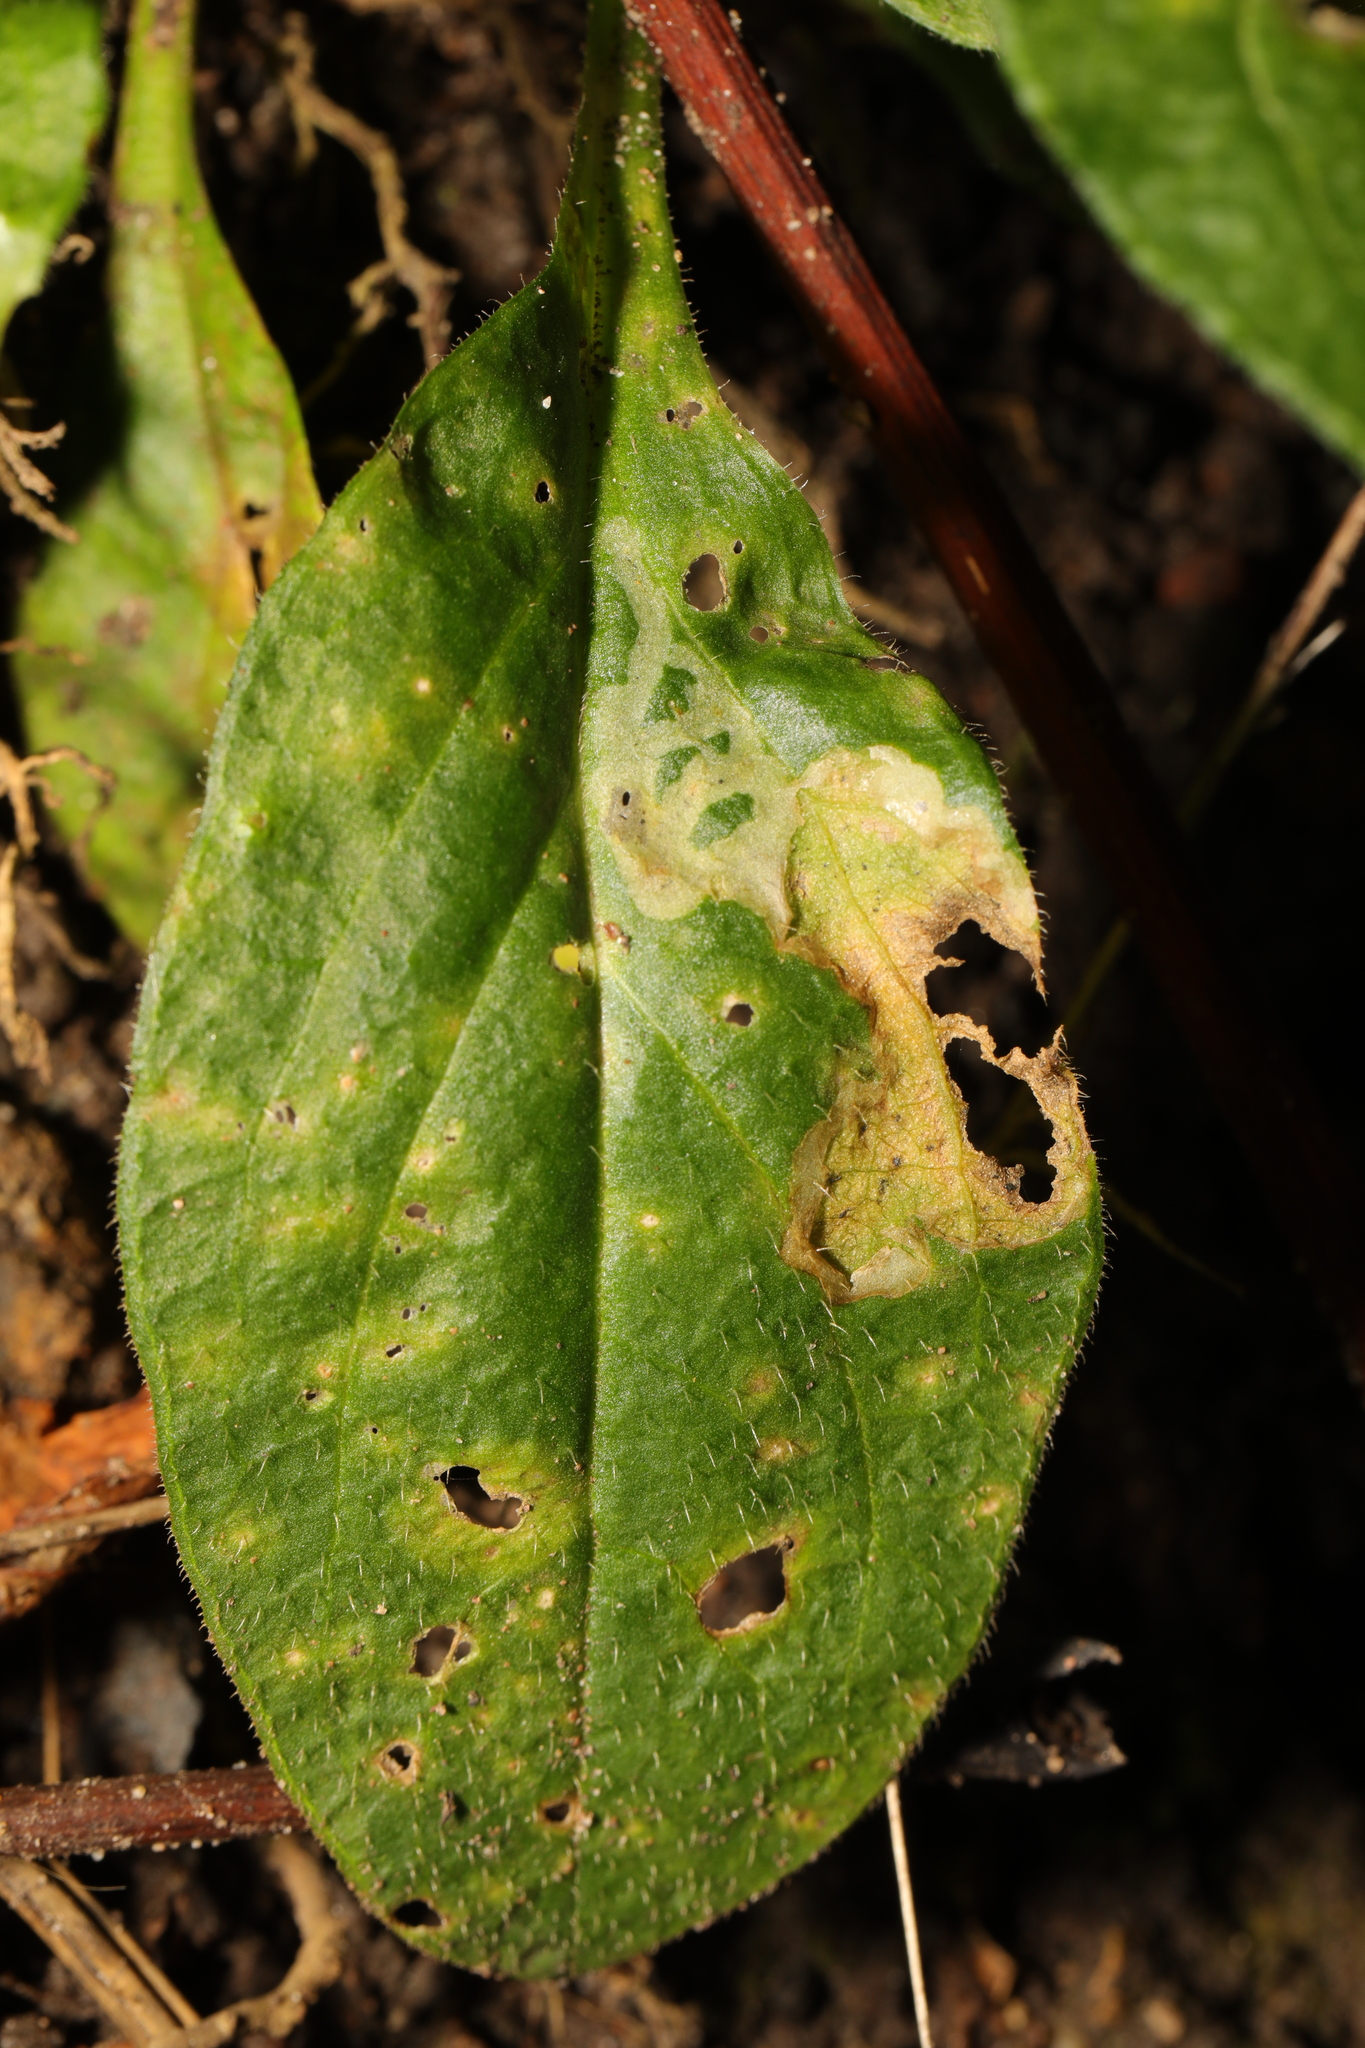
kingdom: Animalia
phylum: Arthropoda
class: Insecta
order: Diptera
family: Agromyzidae
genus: Amauromyza
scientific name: Amauromyza flavifrons
